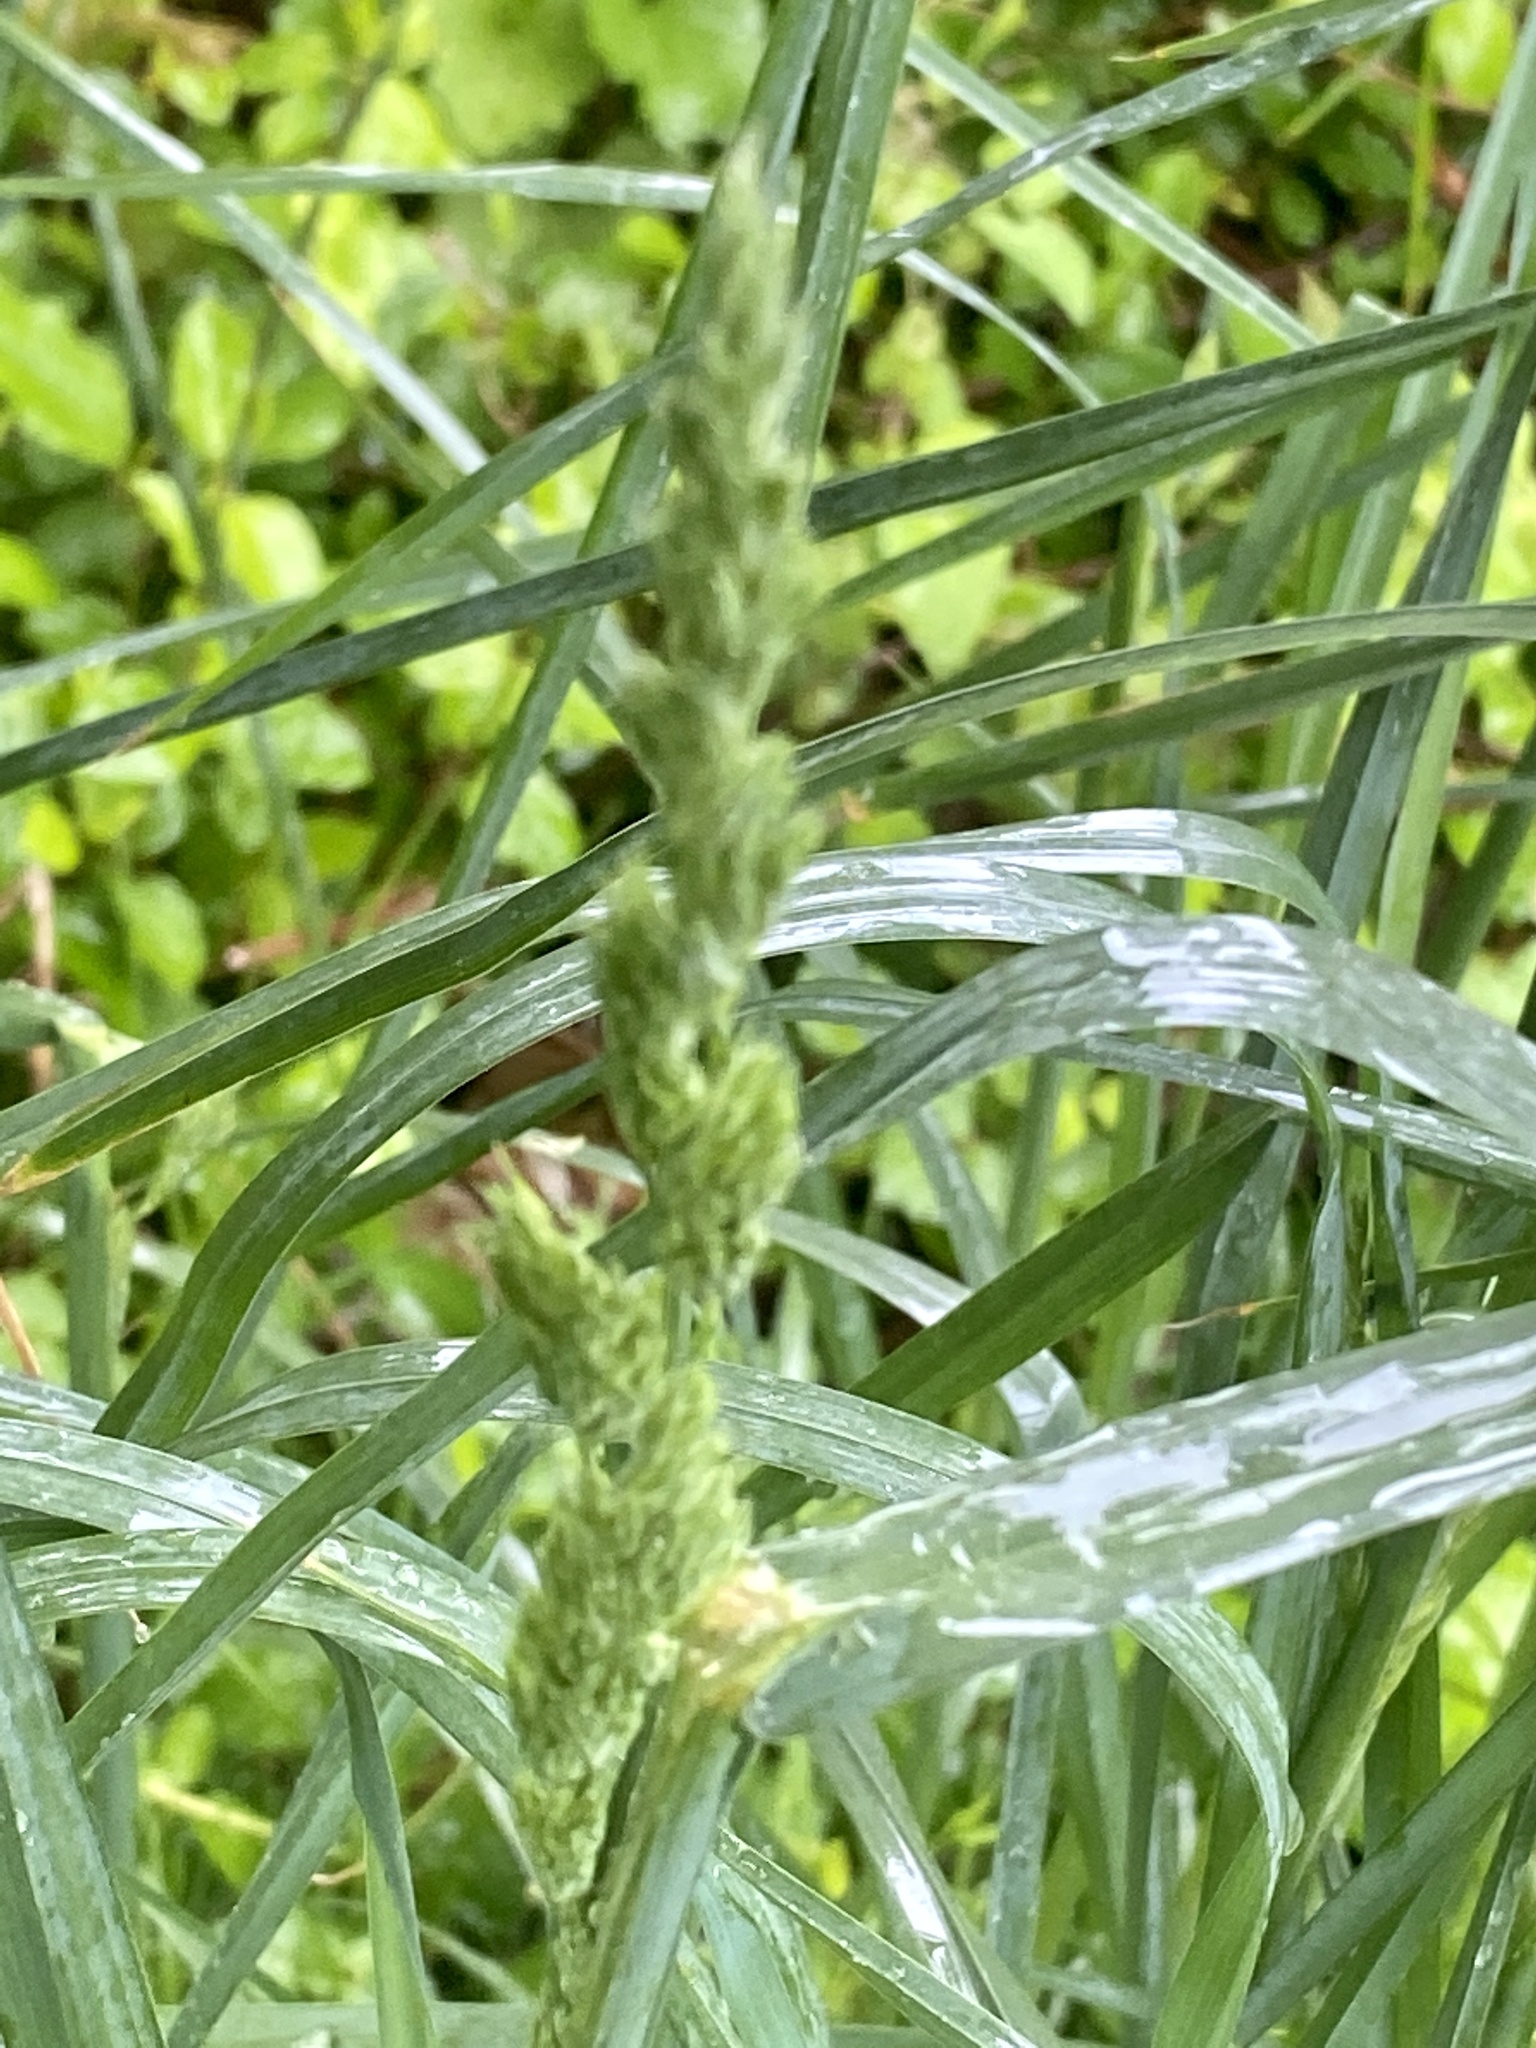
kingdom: Plantae
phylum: Tracheophyta
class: Liliopsida
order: Poales
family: Poaceae
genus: Dactylis
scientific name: Dactylis glomerata
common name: Orchardgrass
